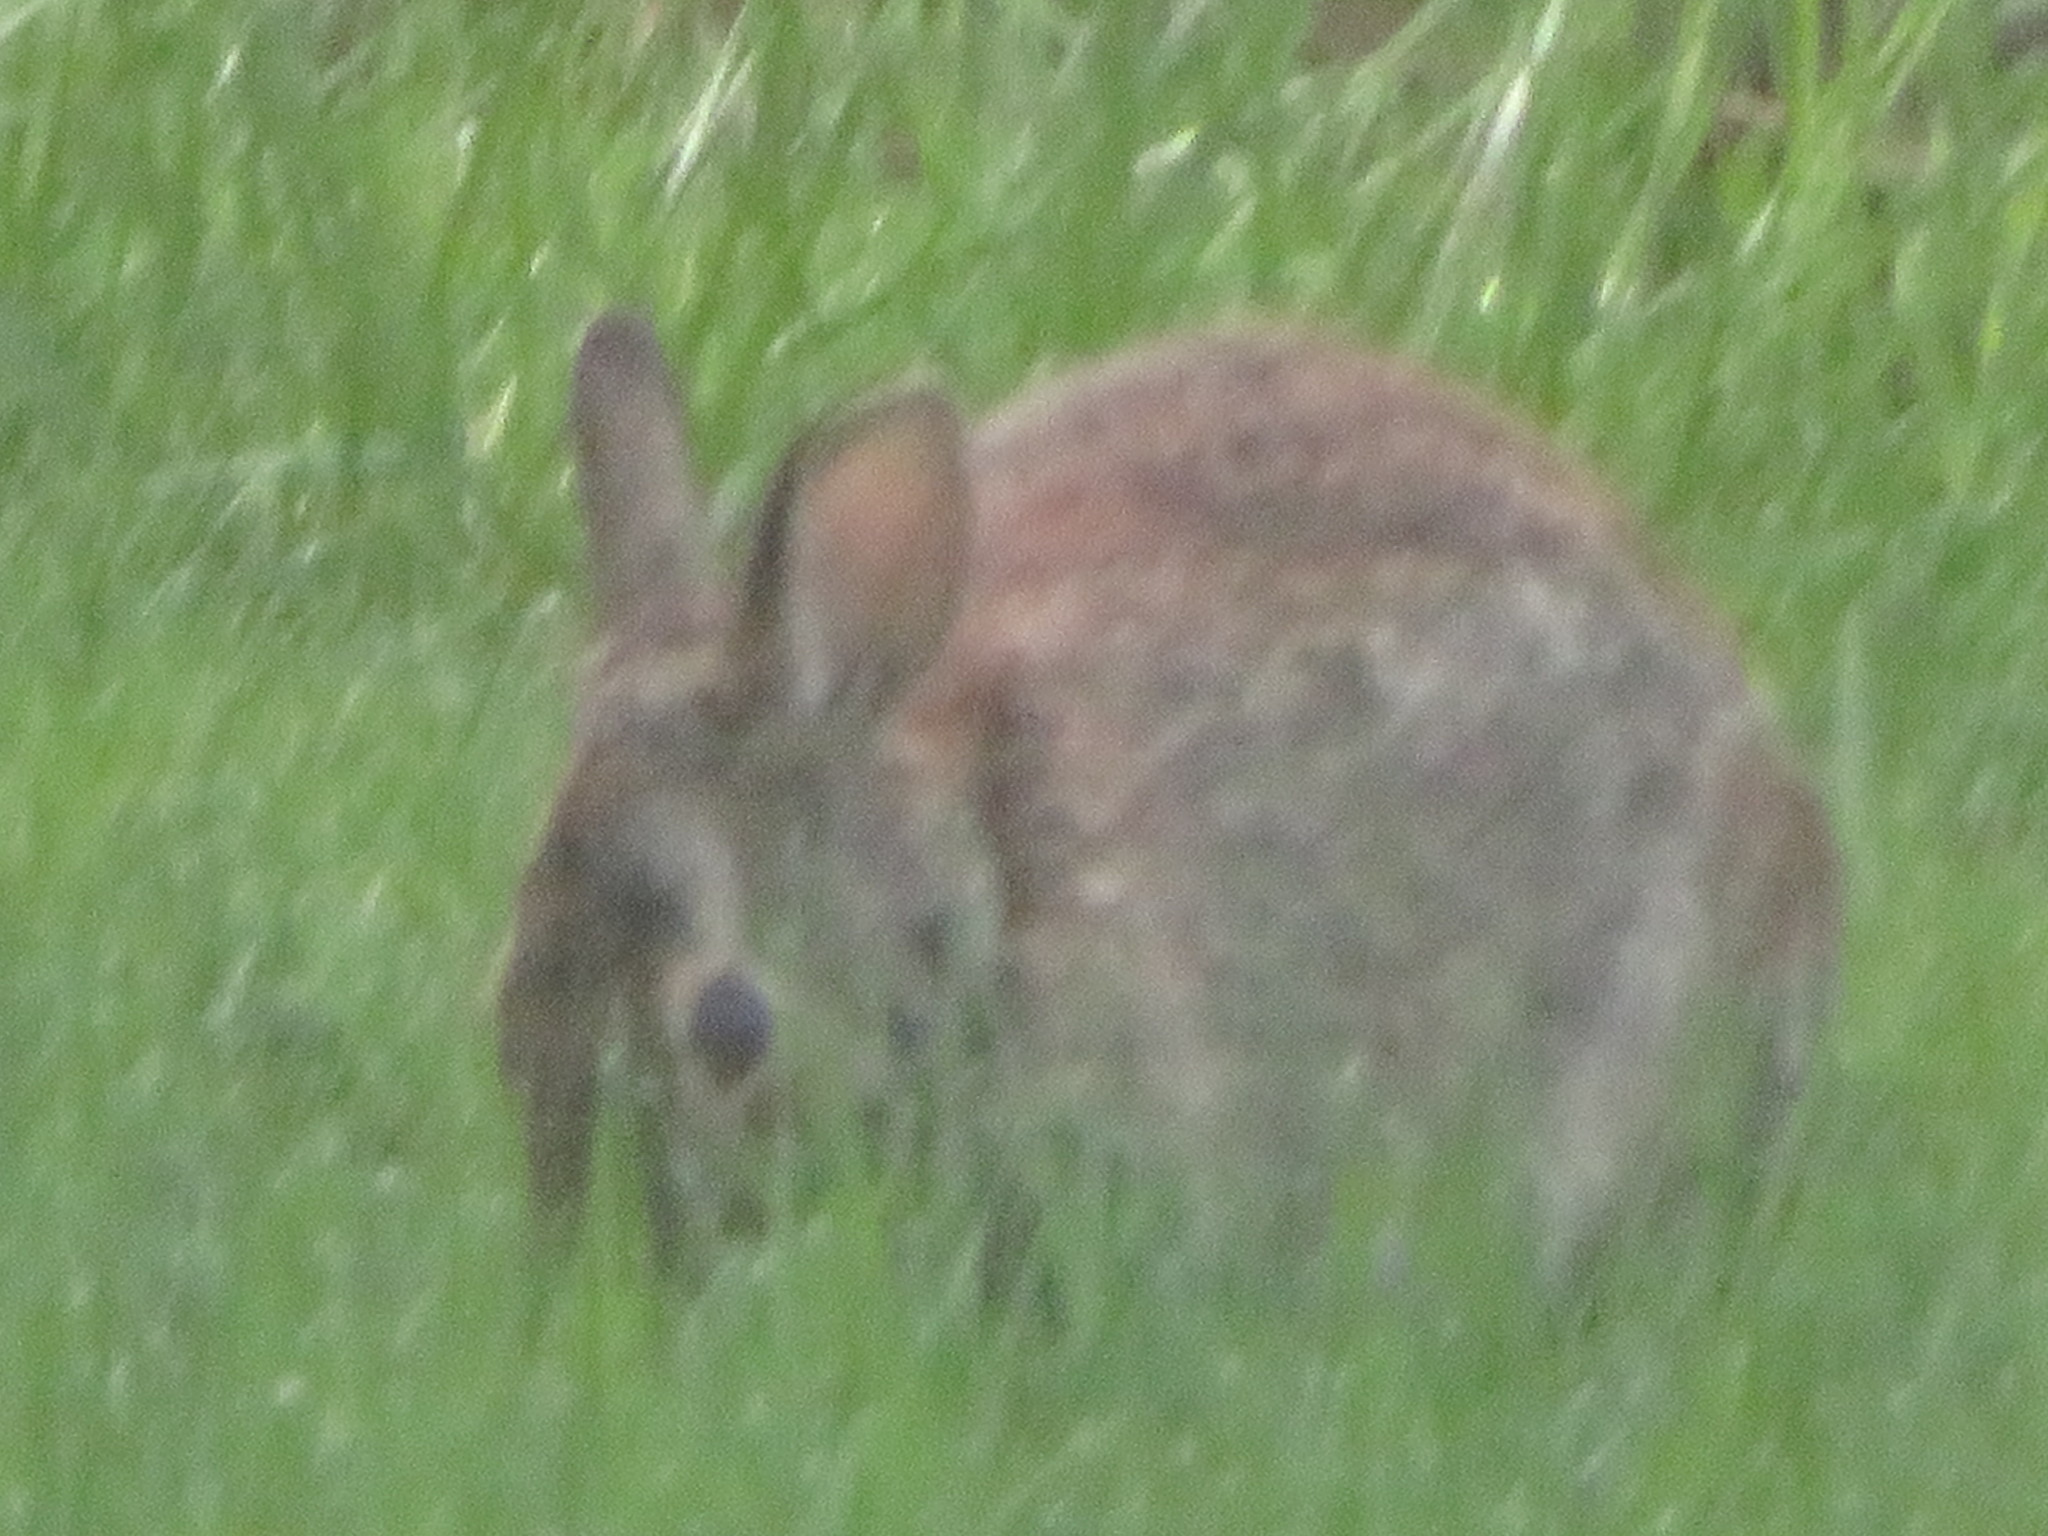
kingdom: Animalia
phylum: Chordata
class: Mammalia
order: Lagomorpha
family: Leporidae
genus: Sylvilagus
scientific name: Sylvilagus floridanus
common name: Eastern cottontail
